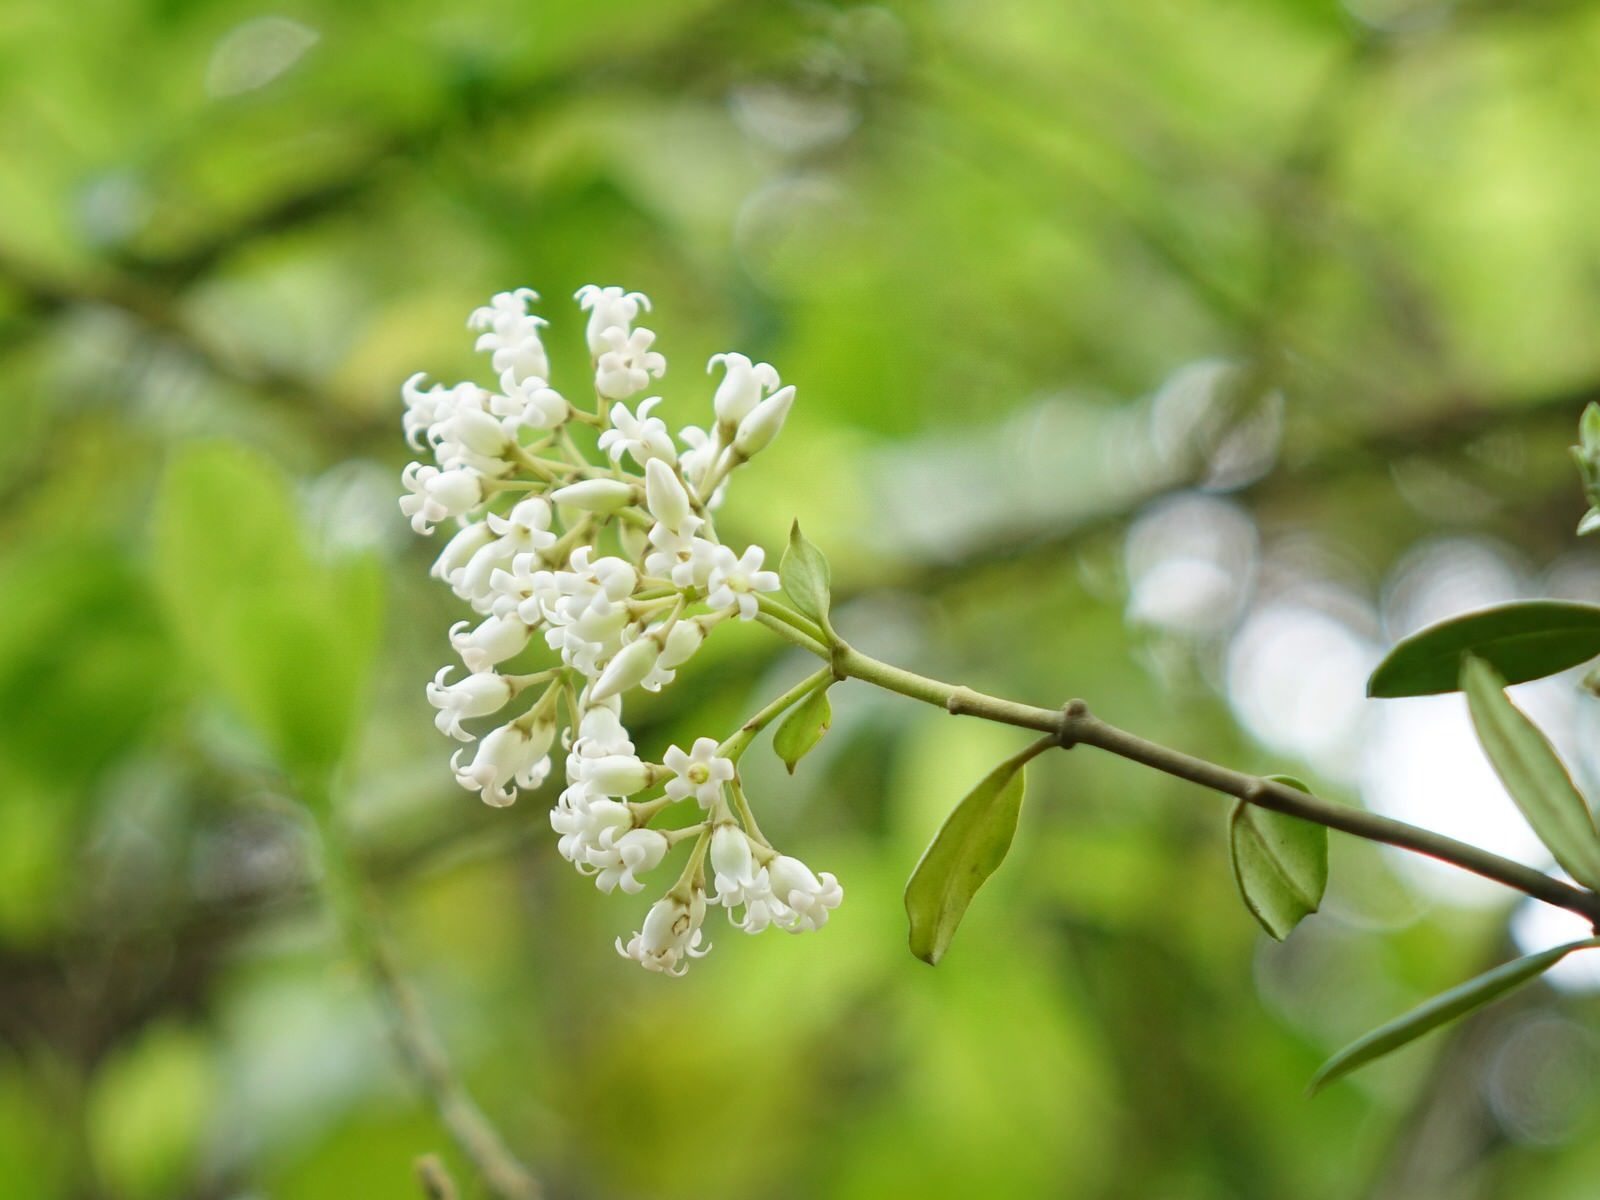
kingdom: Plantae
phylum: Tracheophyta
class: Magnoliopsida
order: Gentianales
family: Apocynaceae
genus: Parsonsia
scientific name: Parsonsia heterophylla
